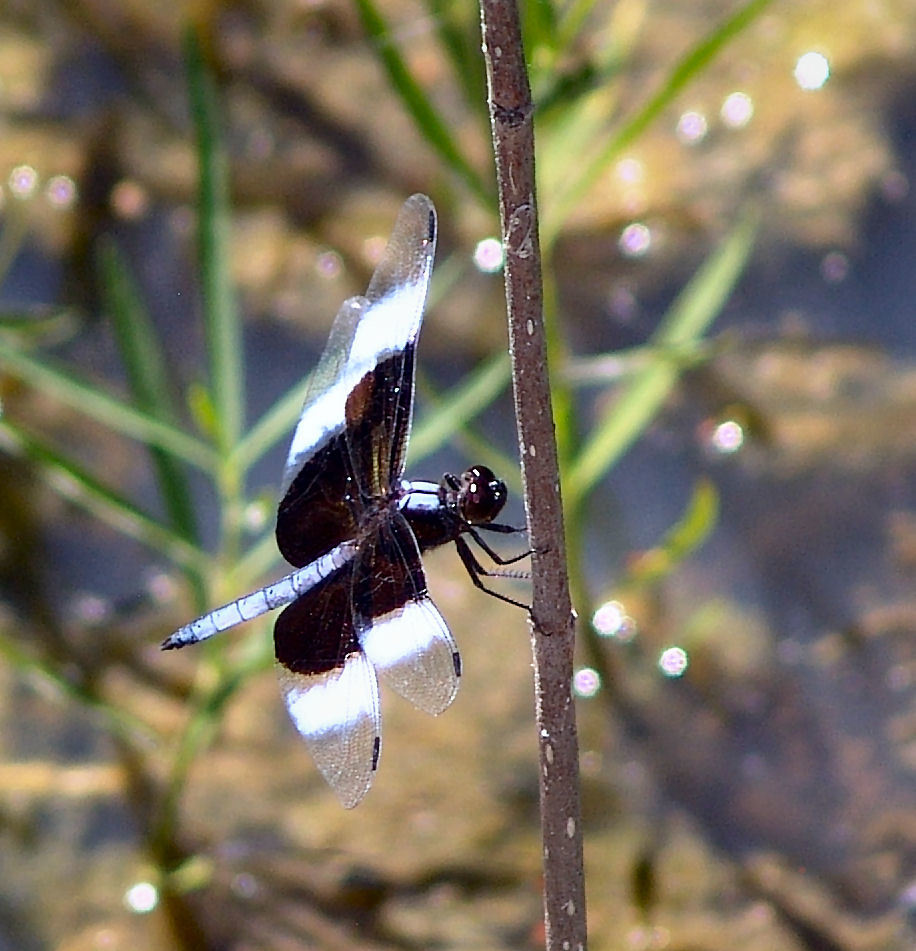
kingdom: Animalia
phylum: Arthropoda
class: Insecta
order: Odonata
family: Libellulidae
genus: Libellula
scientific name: Libellula luctuosa
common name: Widow skimmer
